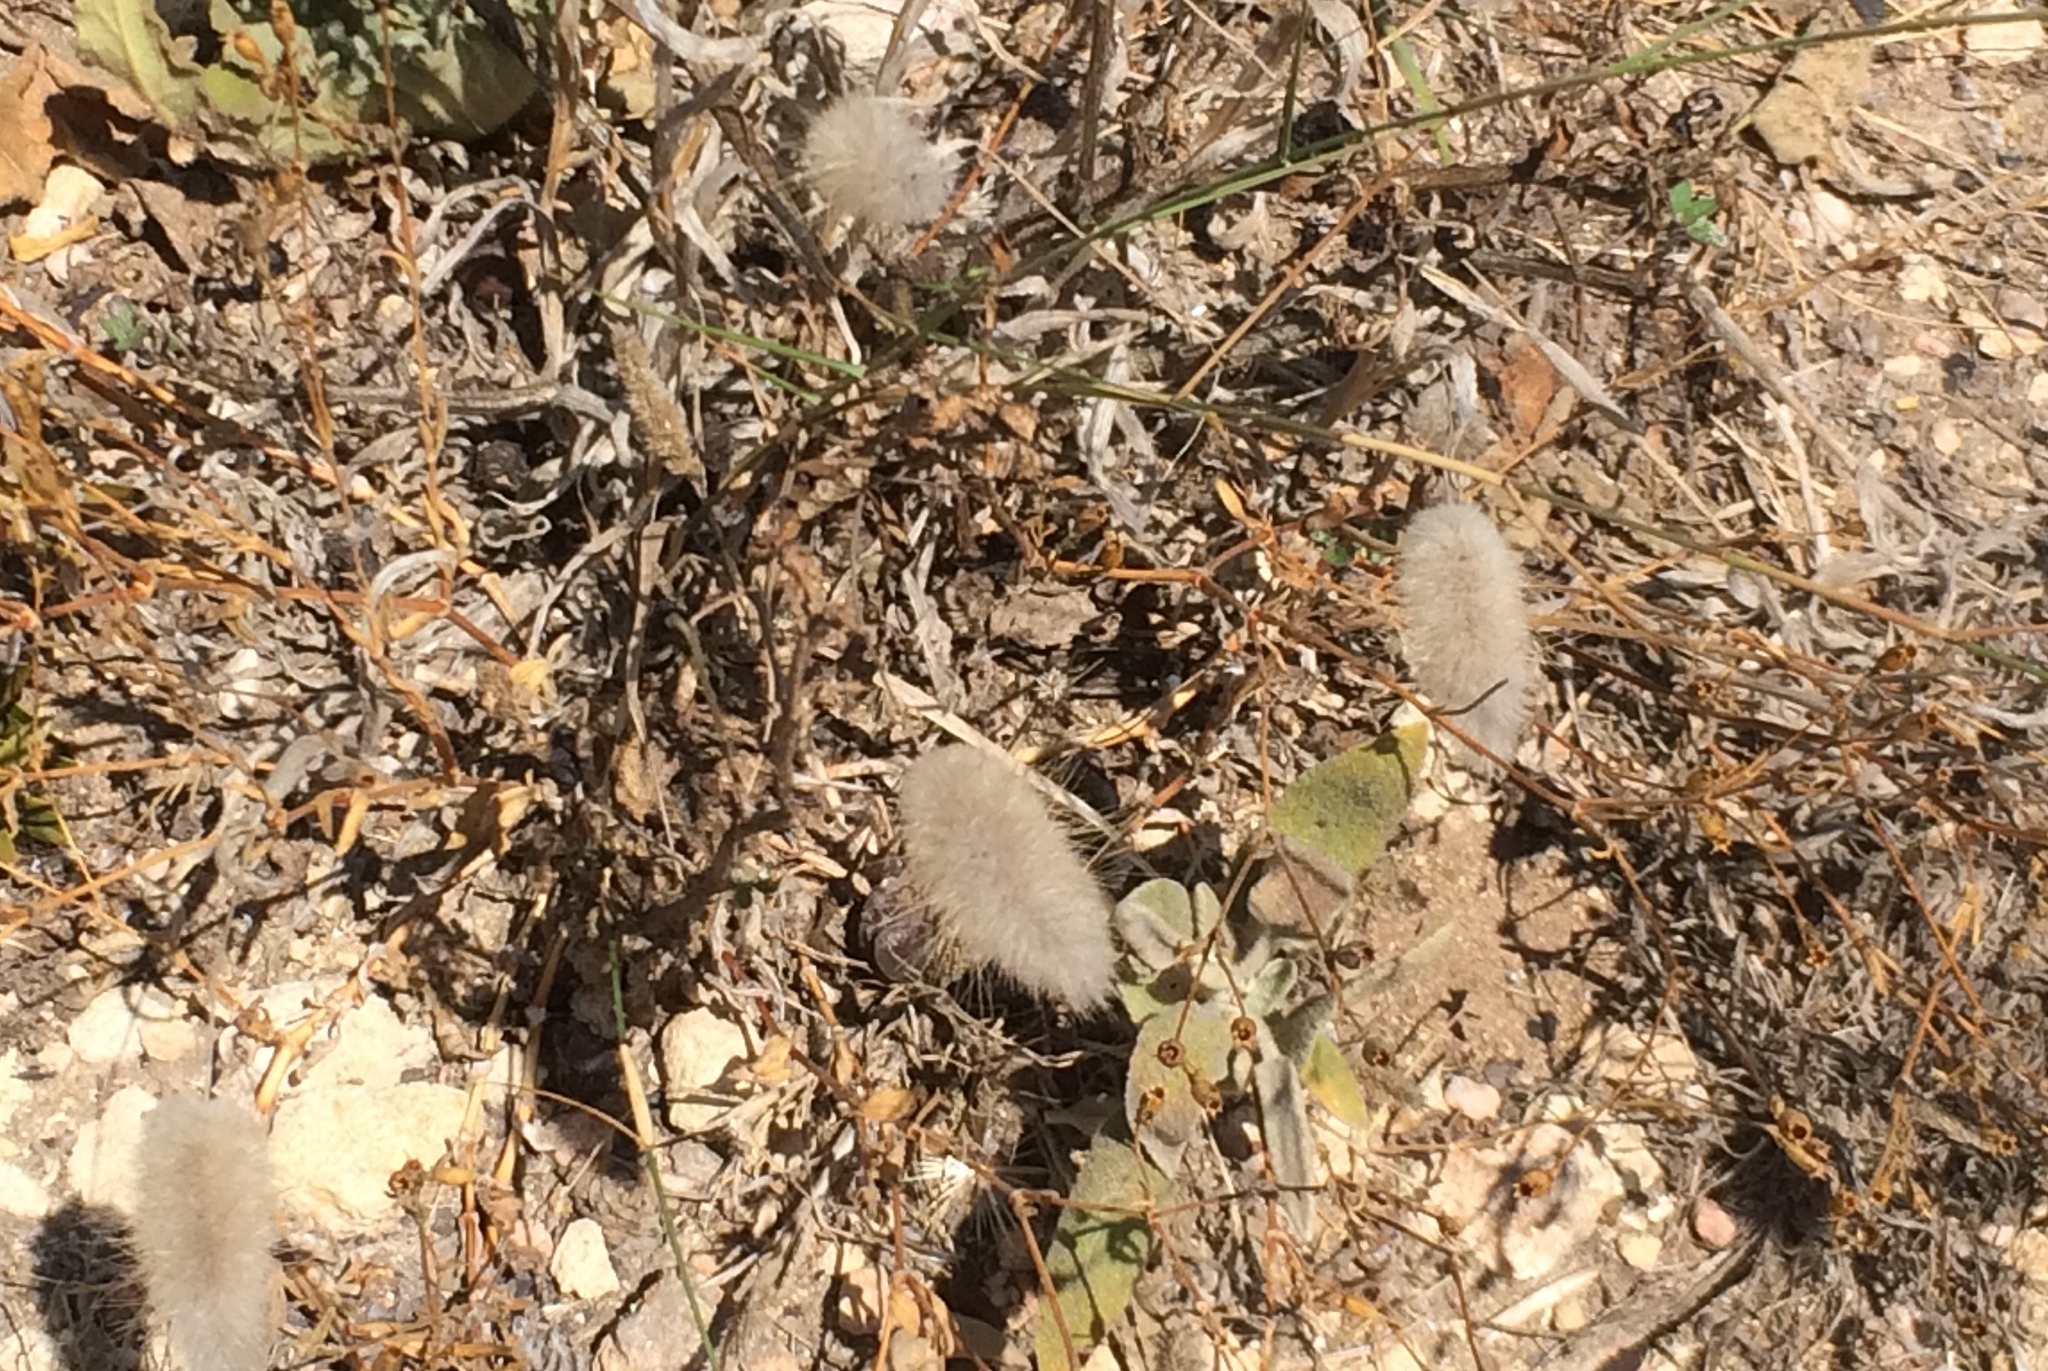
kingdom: Plantae
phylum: Tracheophyta
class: Liliopsida
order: Poales
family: Poaceae
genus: Lagurus
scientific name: Lagurus ovatus
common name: Hare's-tail
